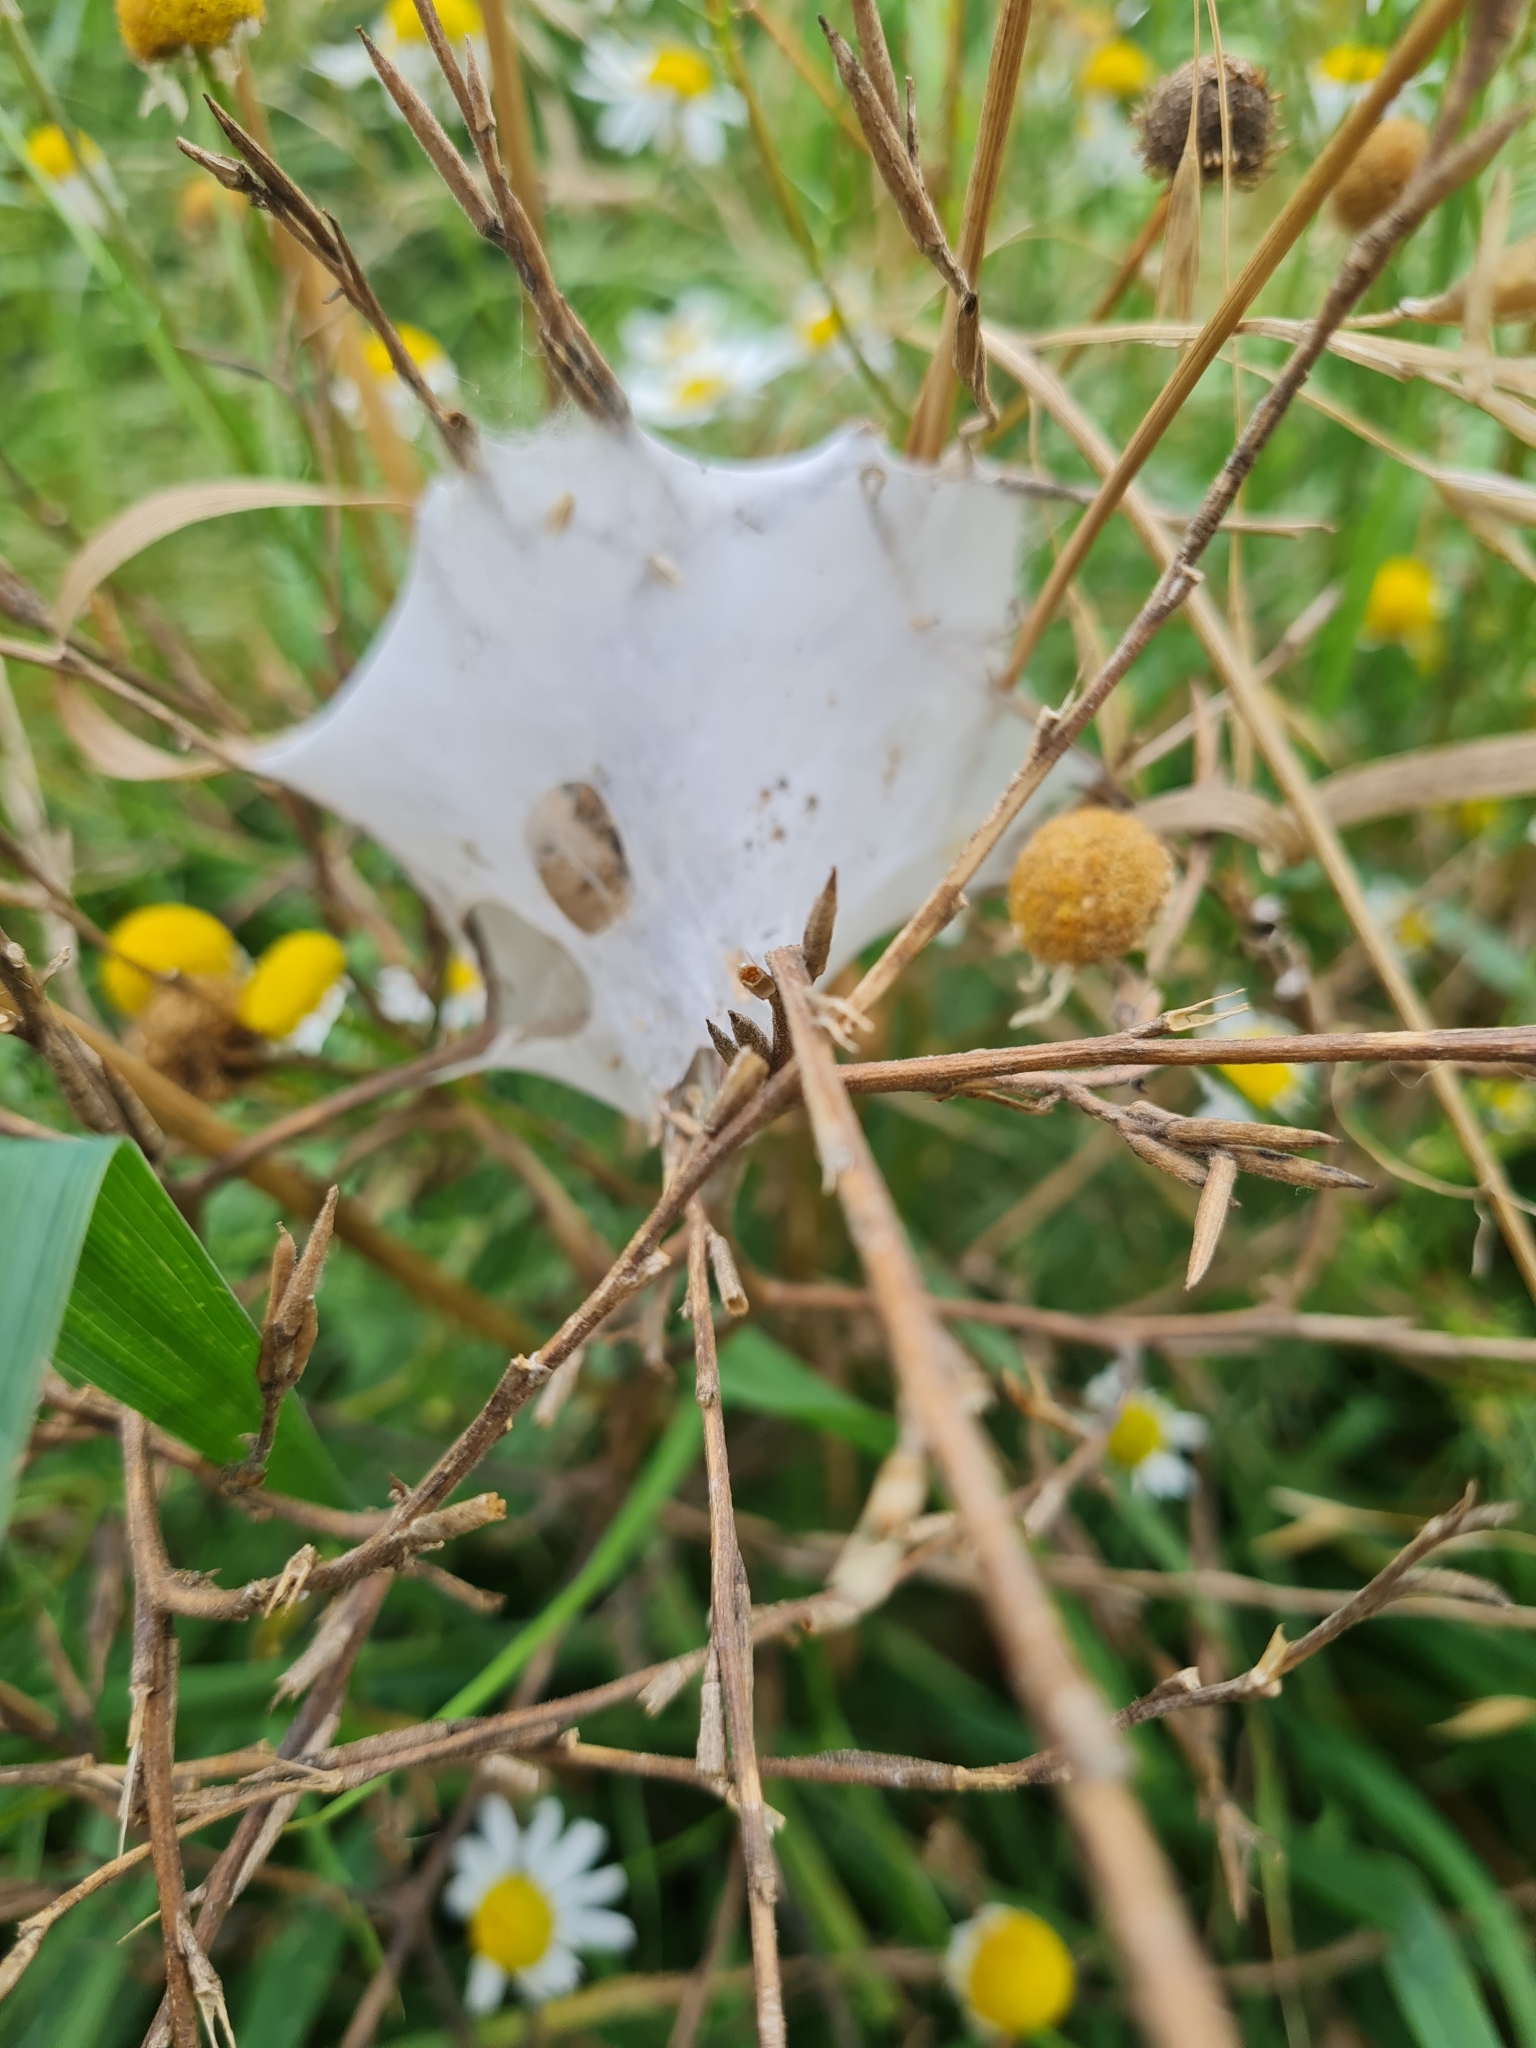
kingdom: Animalia
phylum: Arthropoda
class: Arachnida
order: Araneae
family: Pisauridae
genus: Dolomedes
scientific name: Dolomedes minor
